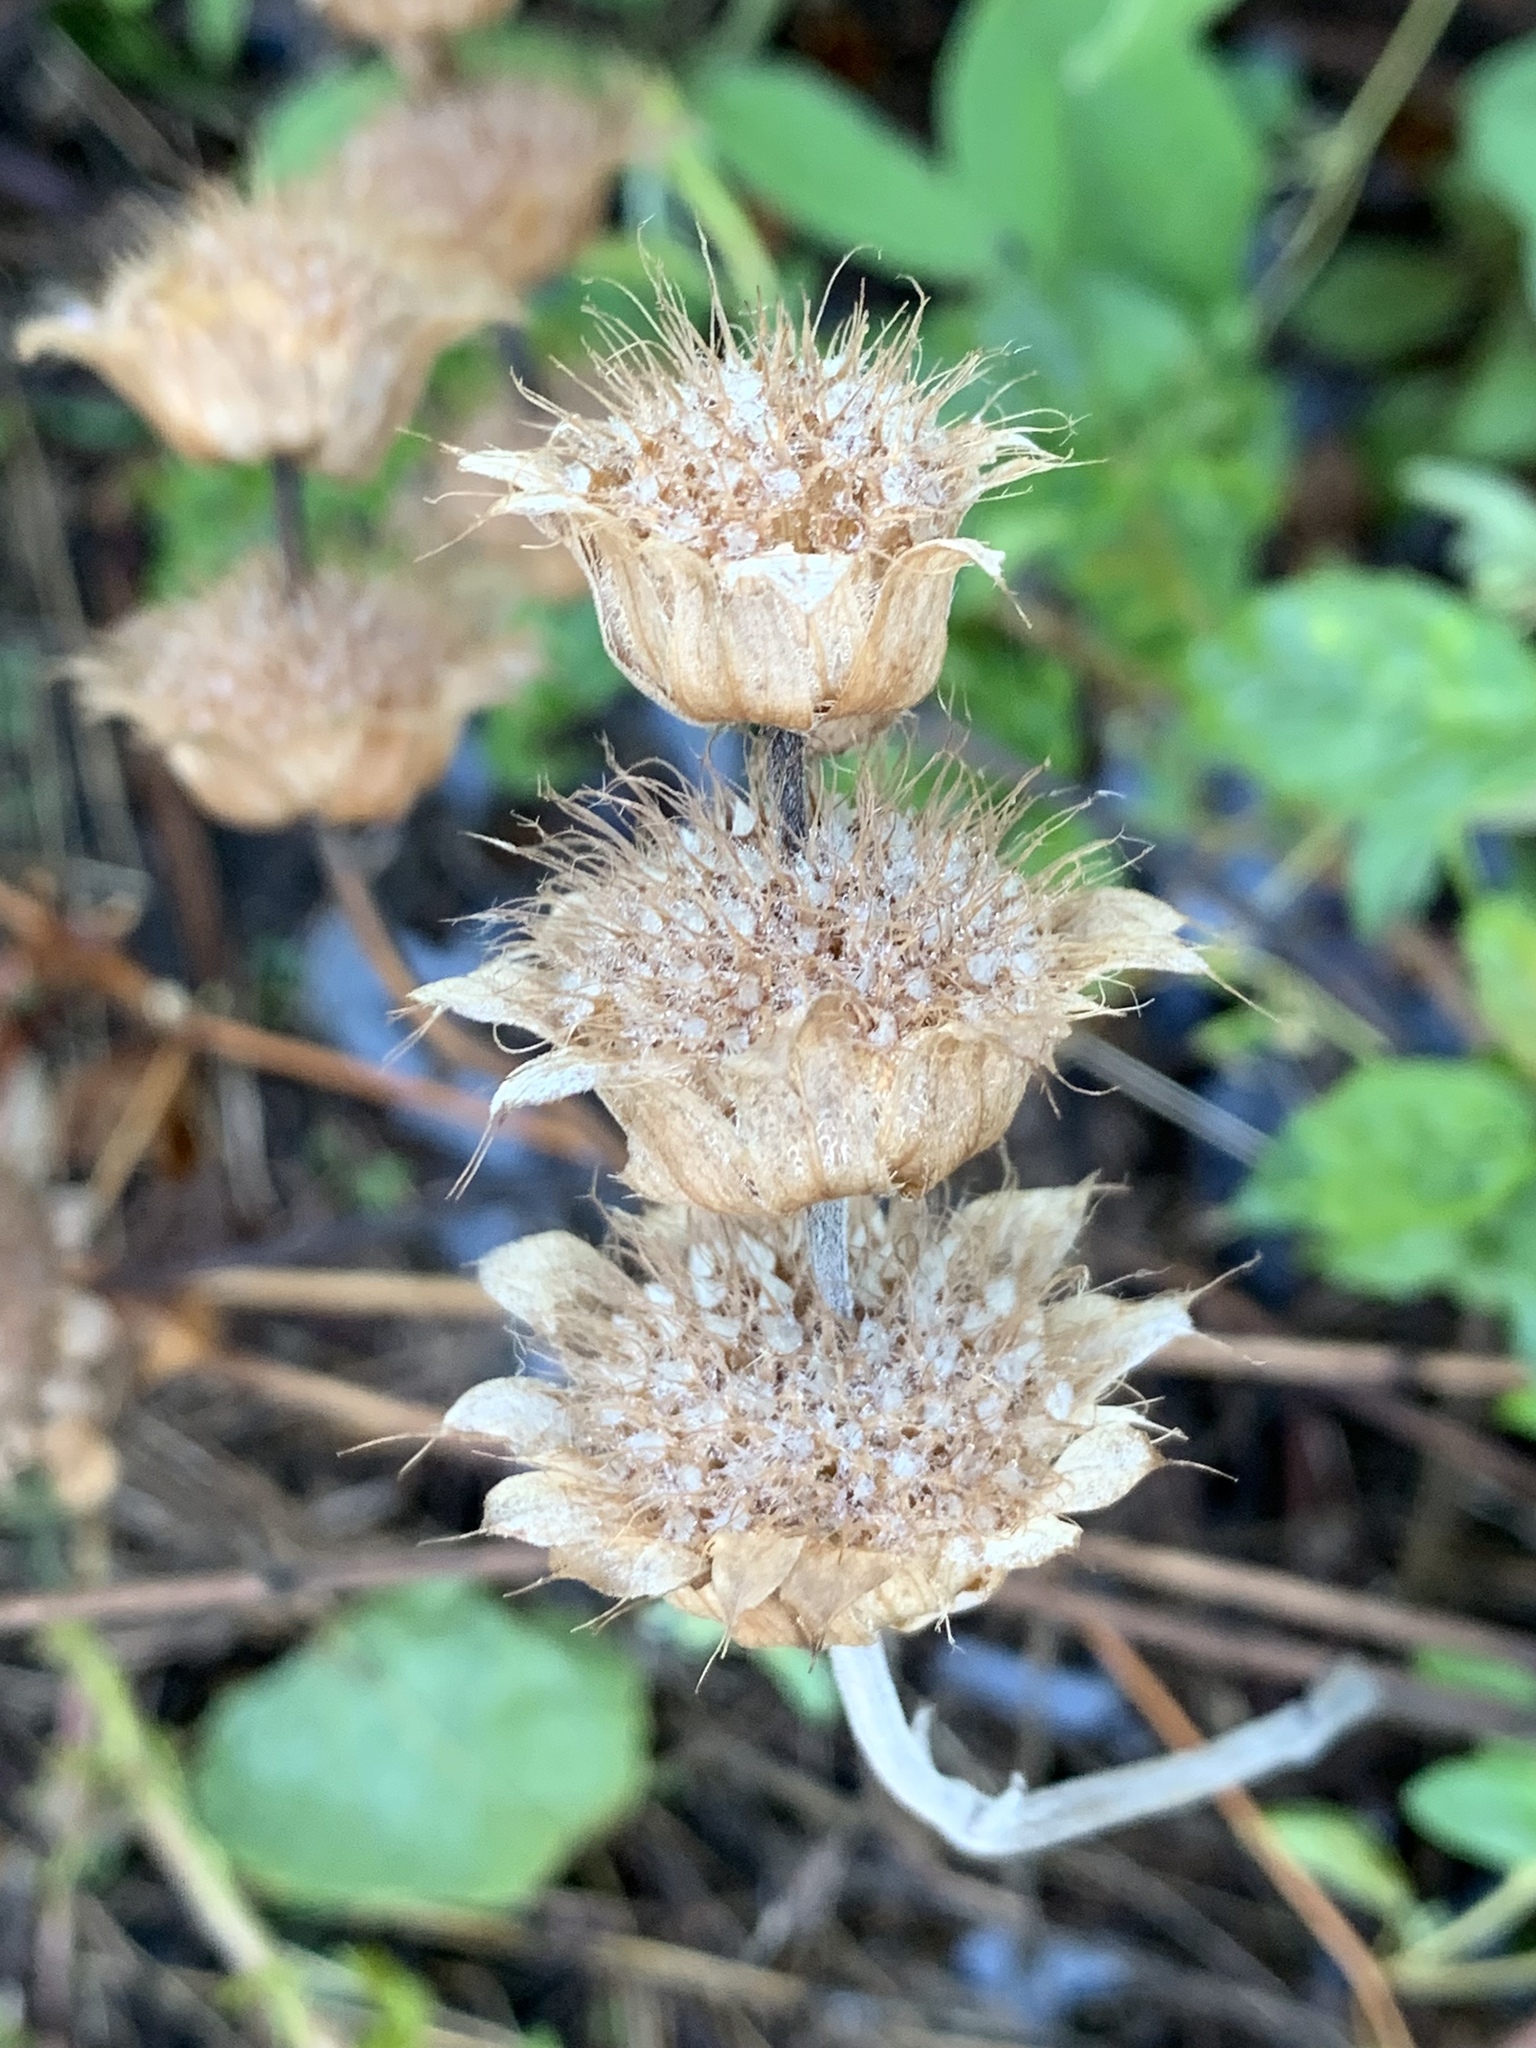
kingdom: Plantae
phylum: Tracheophyta
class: Magnoliopsida
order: Lamiales
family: Lamiaceae
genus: Monarda
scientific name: Monarda citriodora
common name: Lemon beebalm
